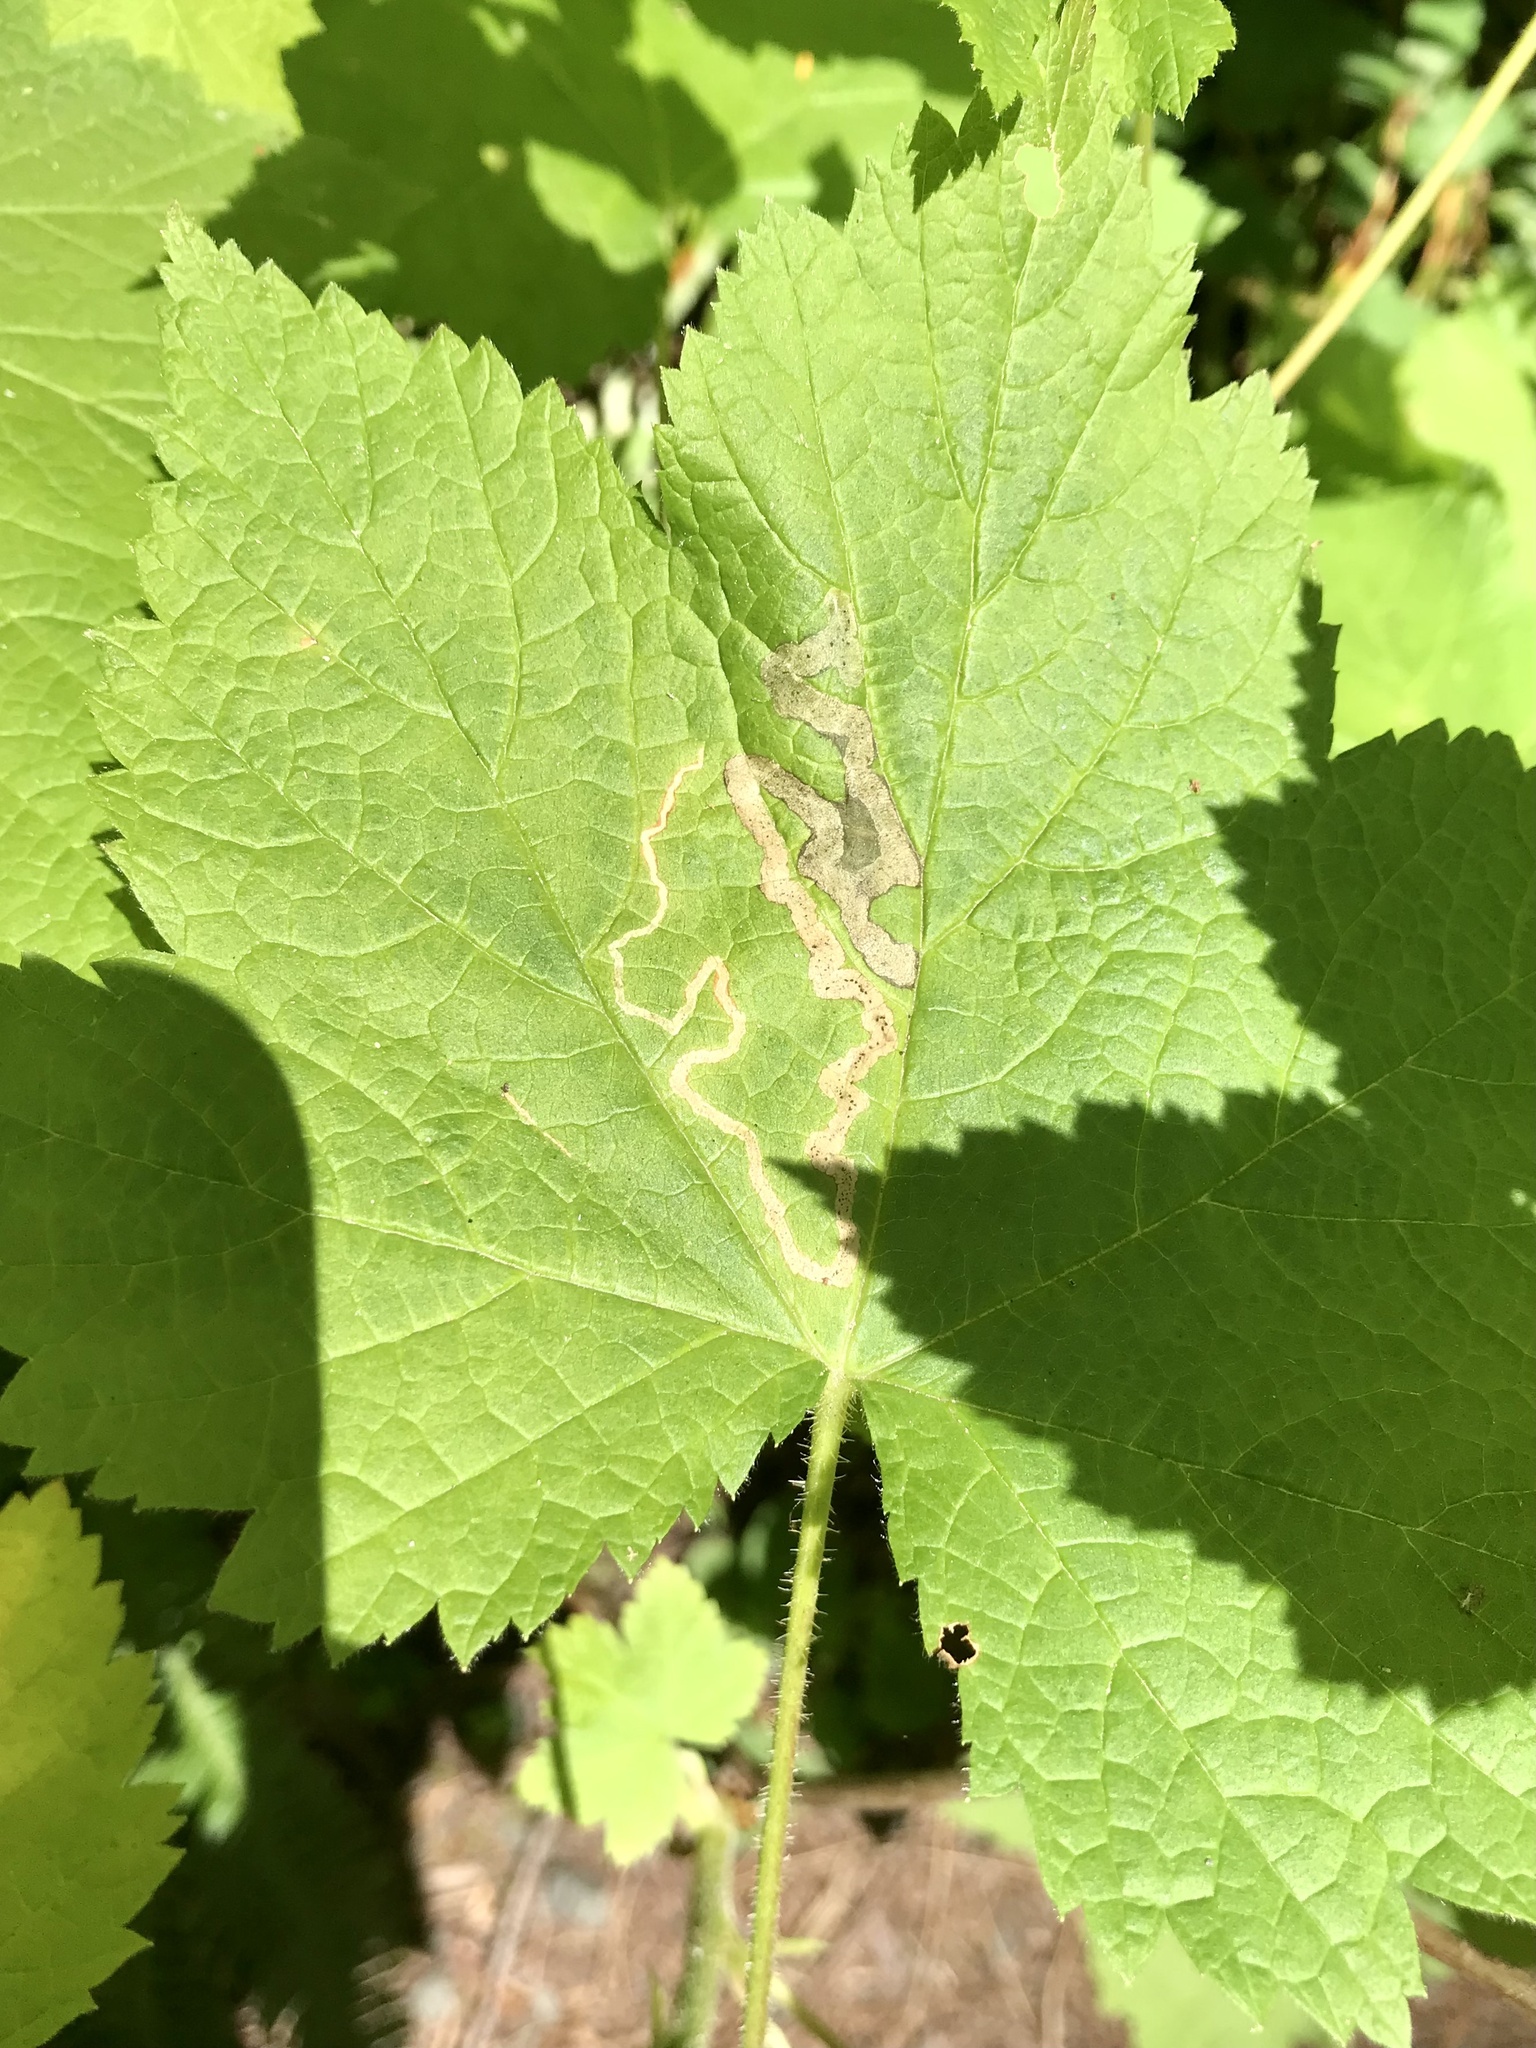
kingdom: Animalia
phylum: Arthropoda
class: Insecta
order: Diptera
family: Agromyzidae
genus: Agromyza
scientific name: Agromyza vockerothi
